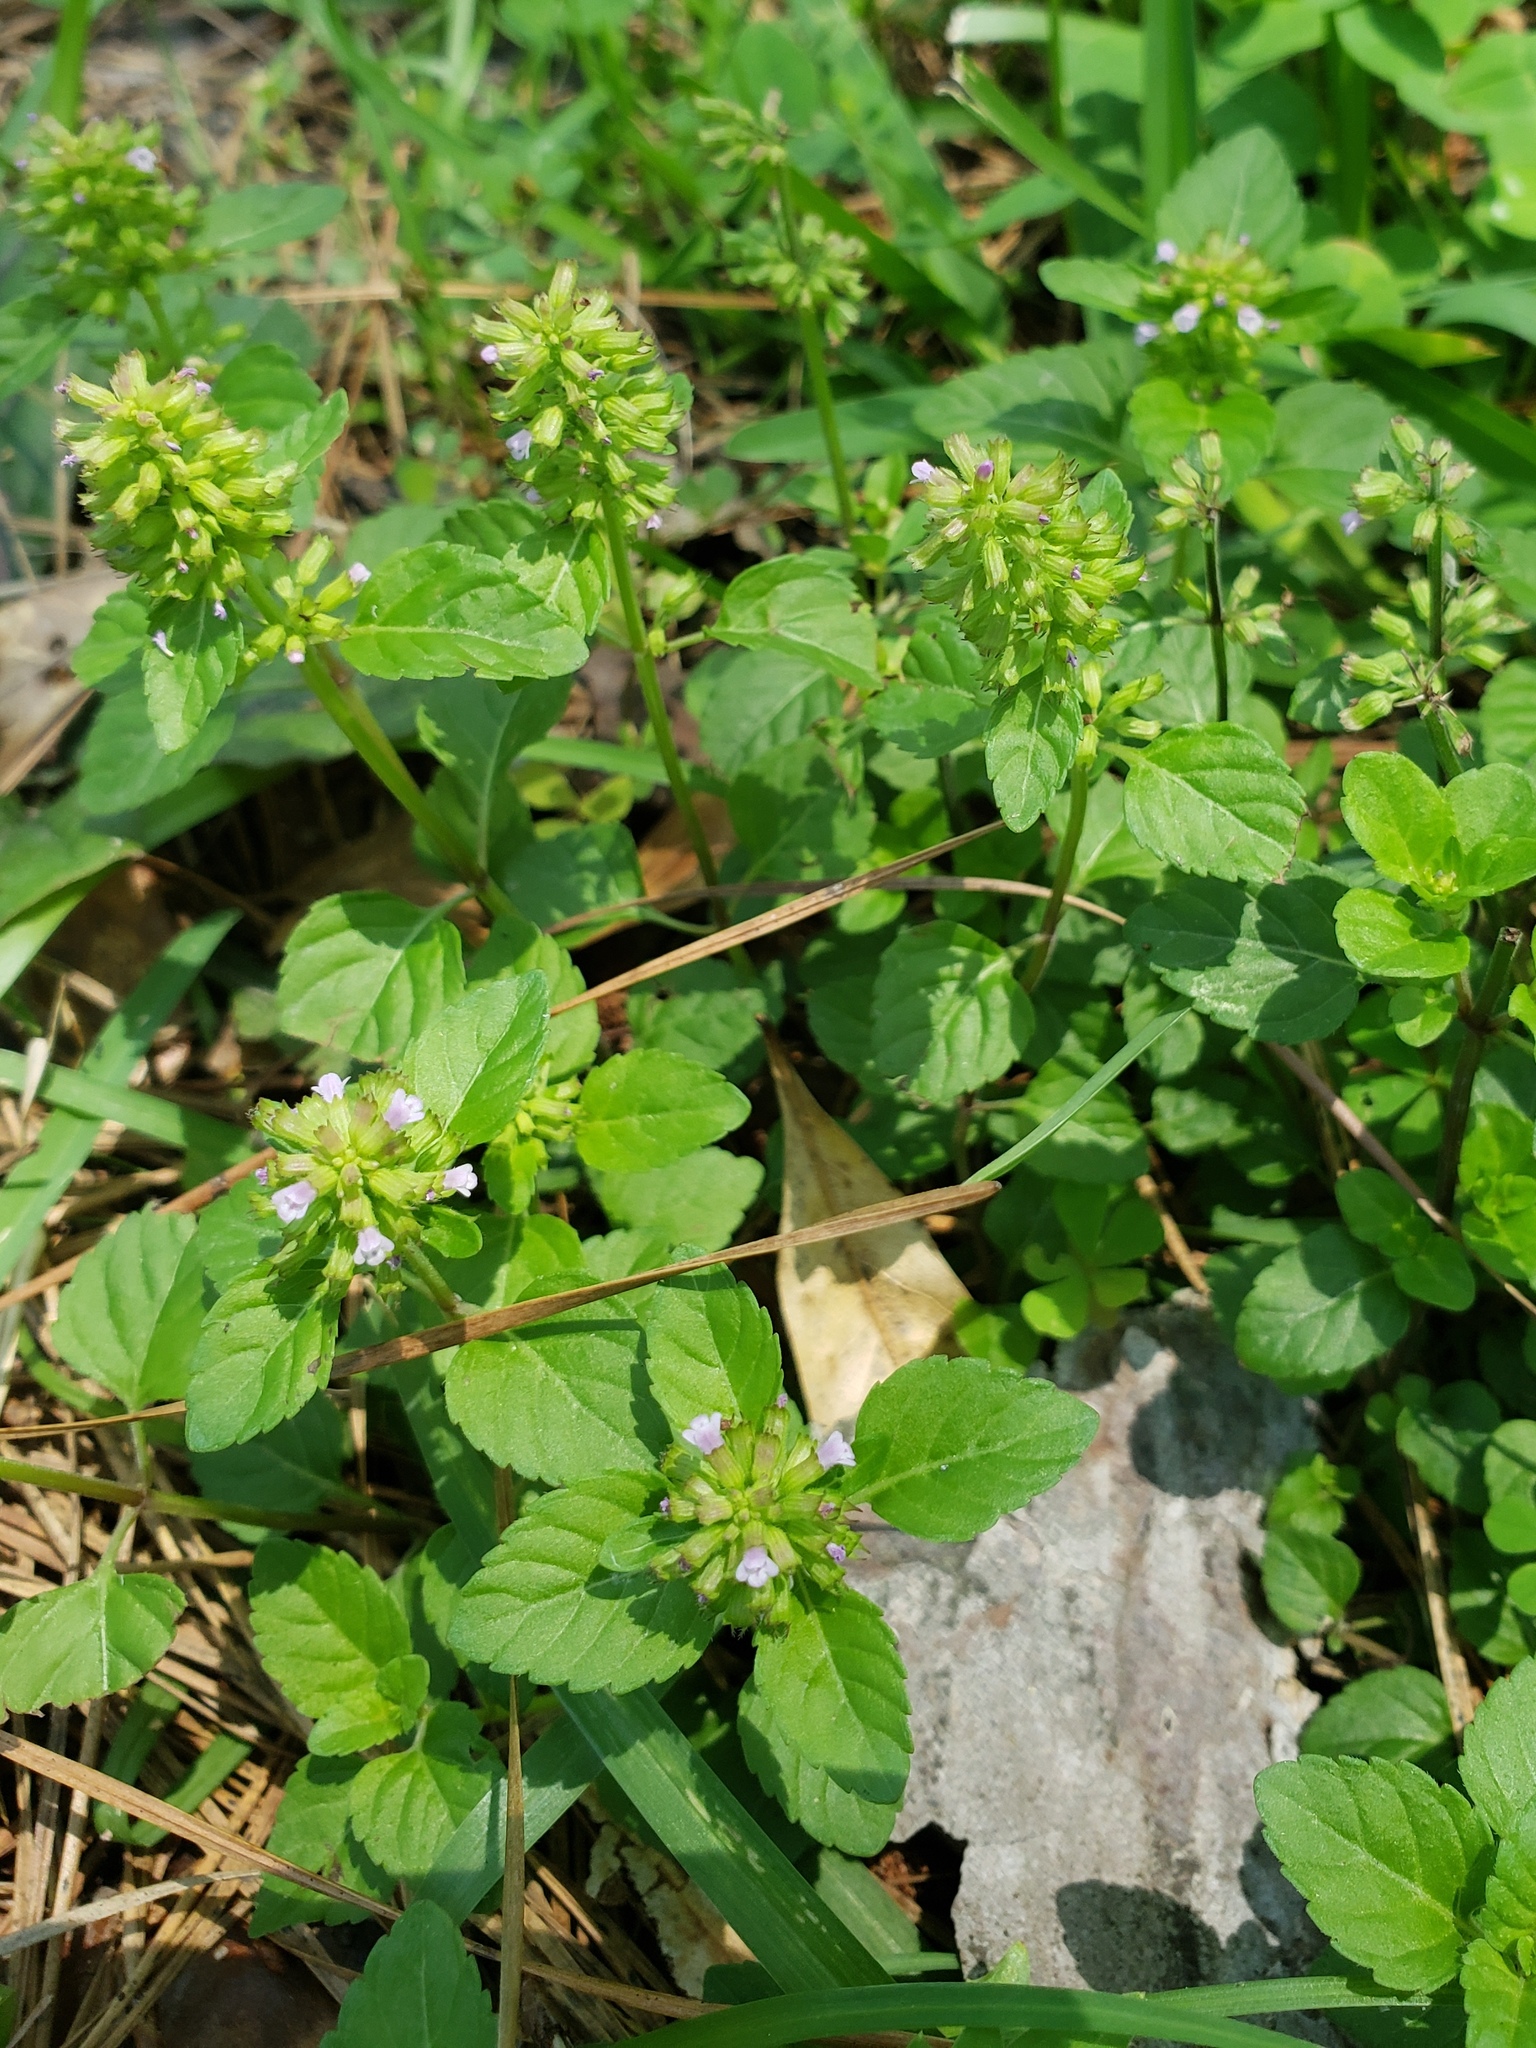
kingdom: Plantae
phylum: Tracheophyta
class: Magnoliopsida
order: Lamiales
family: Lamiaceae
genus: Clinopodium
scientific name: Clinopodium gracile
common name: Slender wild basil
